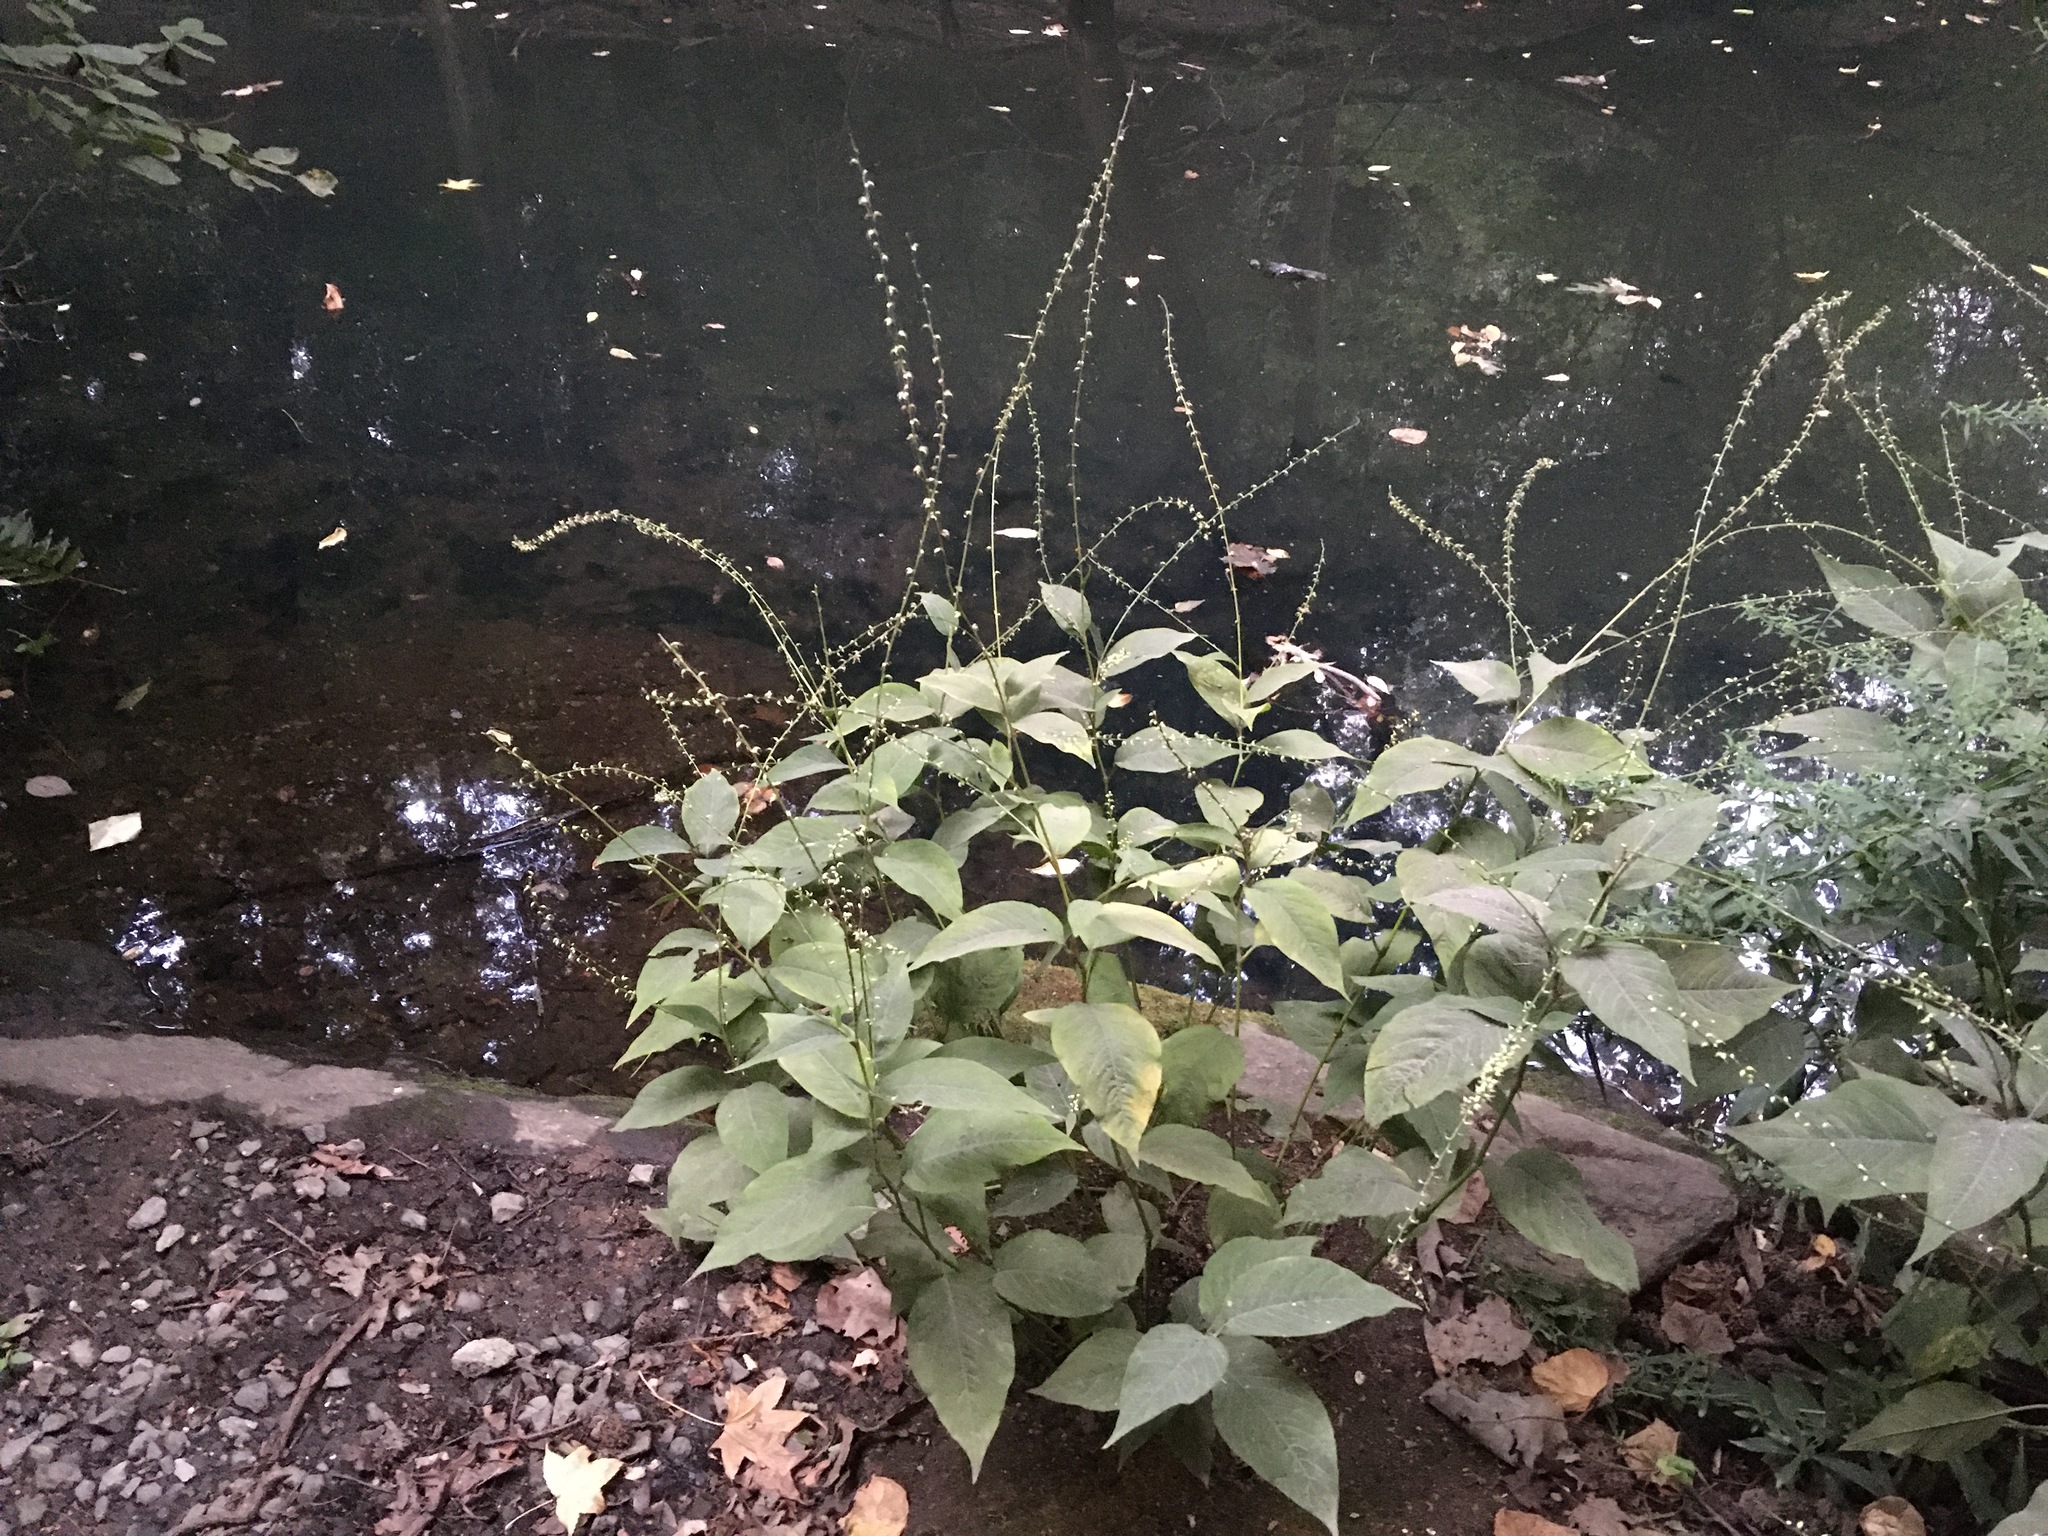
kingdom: Plantae
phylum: Tracheophyta
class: Magnoliopsida
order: Caryophyllales
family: Polygonaceae
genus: Persicaria
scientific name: Persicaria virginiana
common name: Jumpseed
